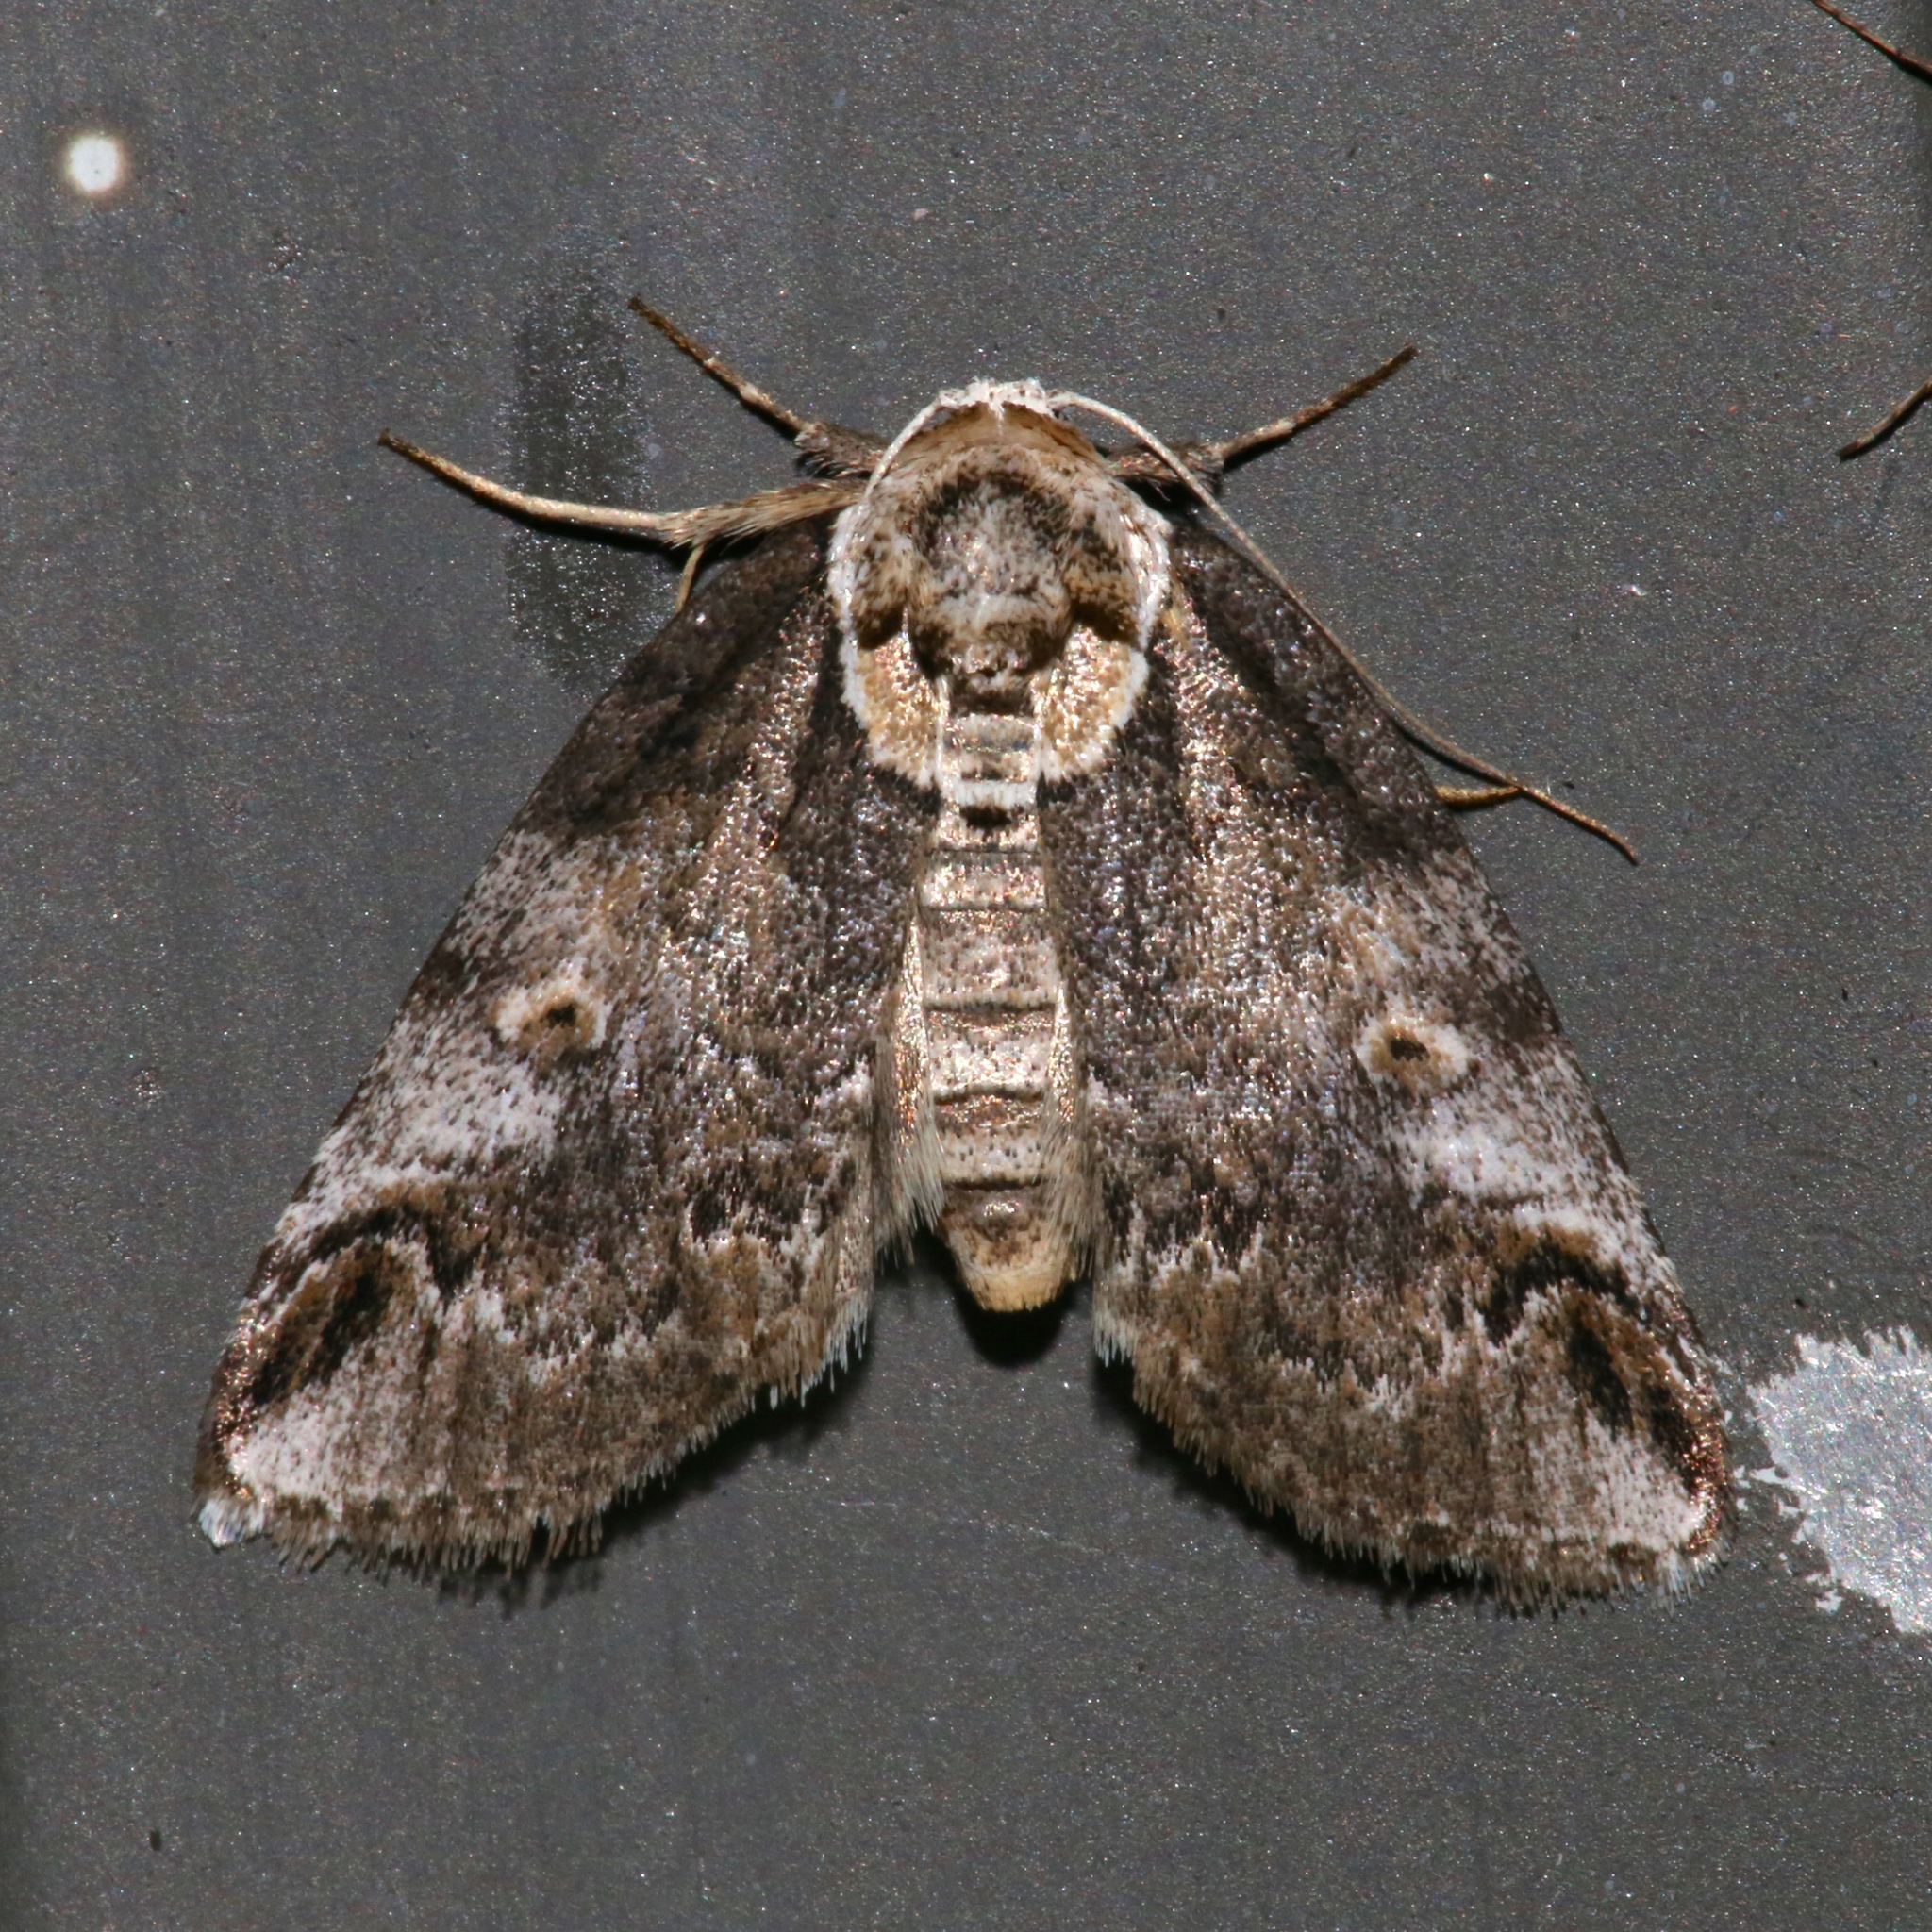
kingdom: Animalia
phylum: Arthropoda
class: Insecta
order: Lepidoptera
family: Nolidae
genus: Baileya
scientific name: Baileya ophthalmica
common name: Eyed baileya moth
